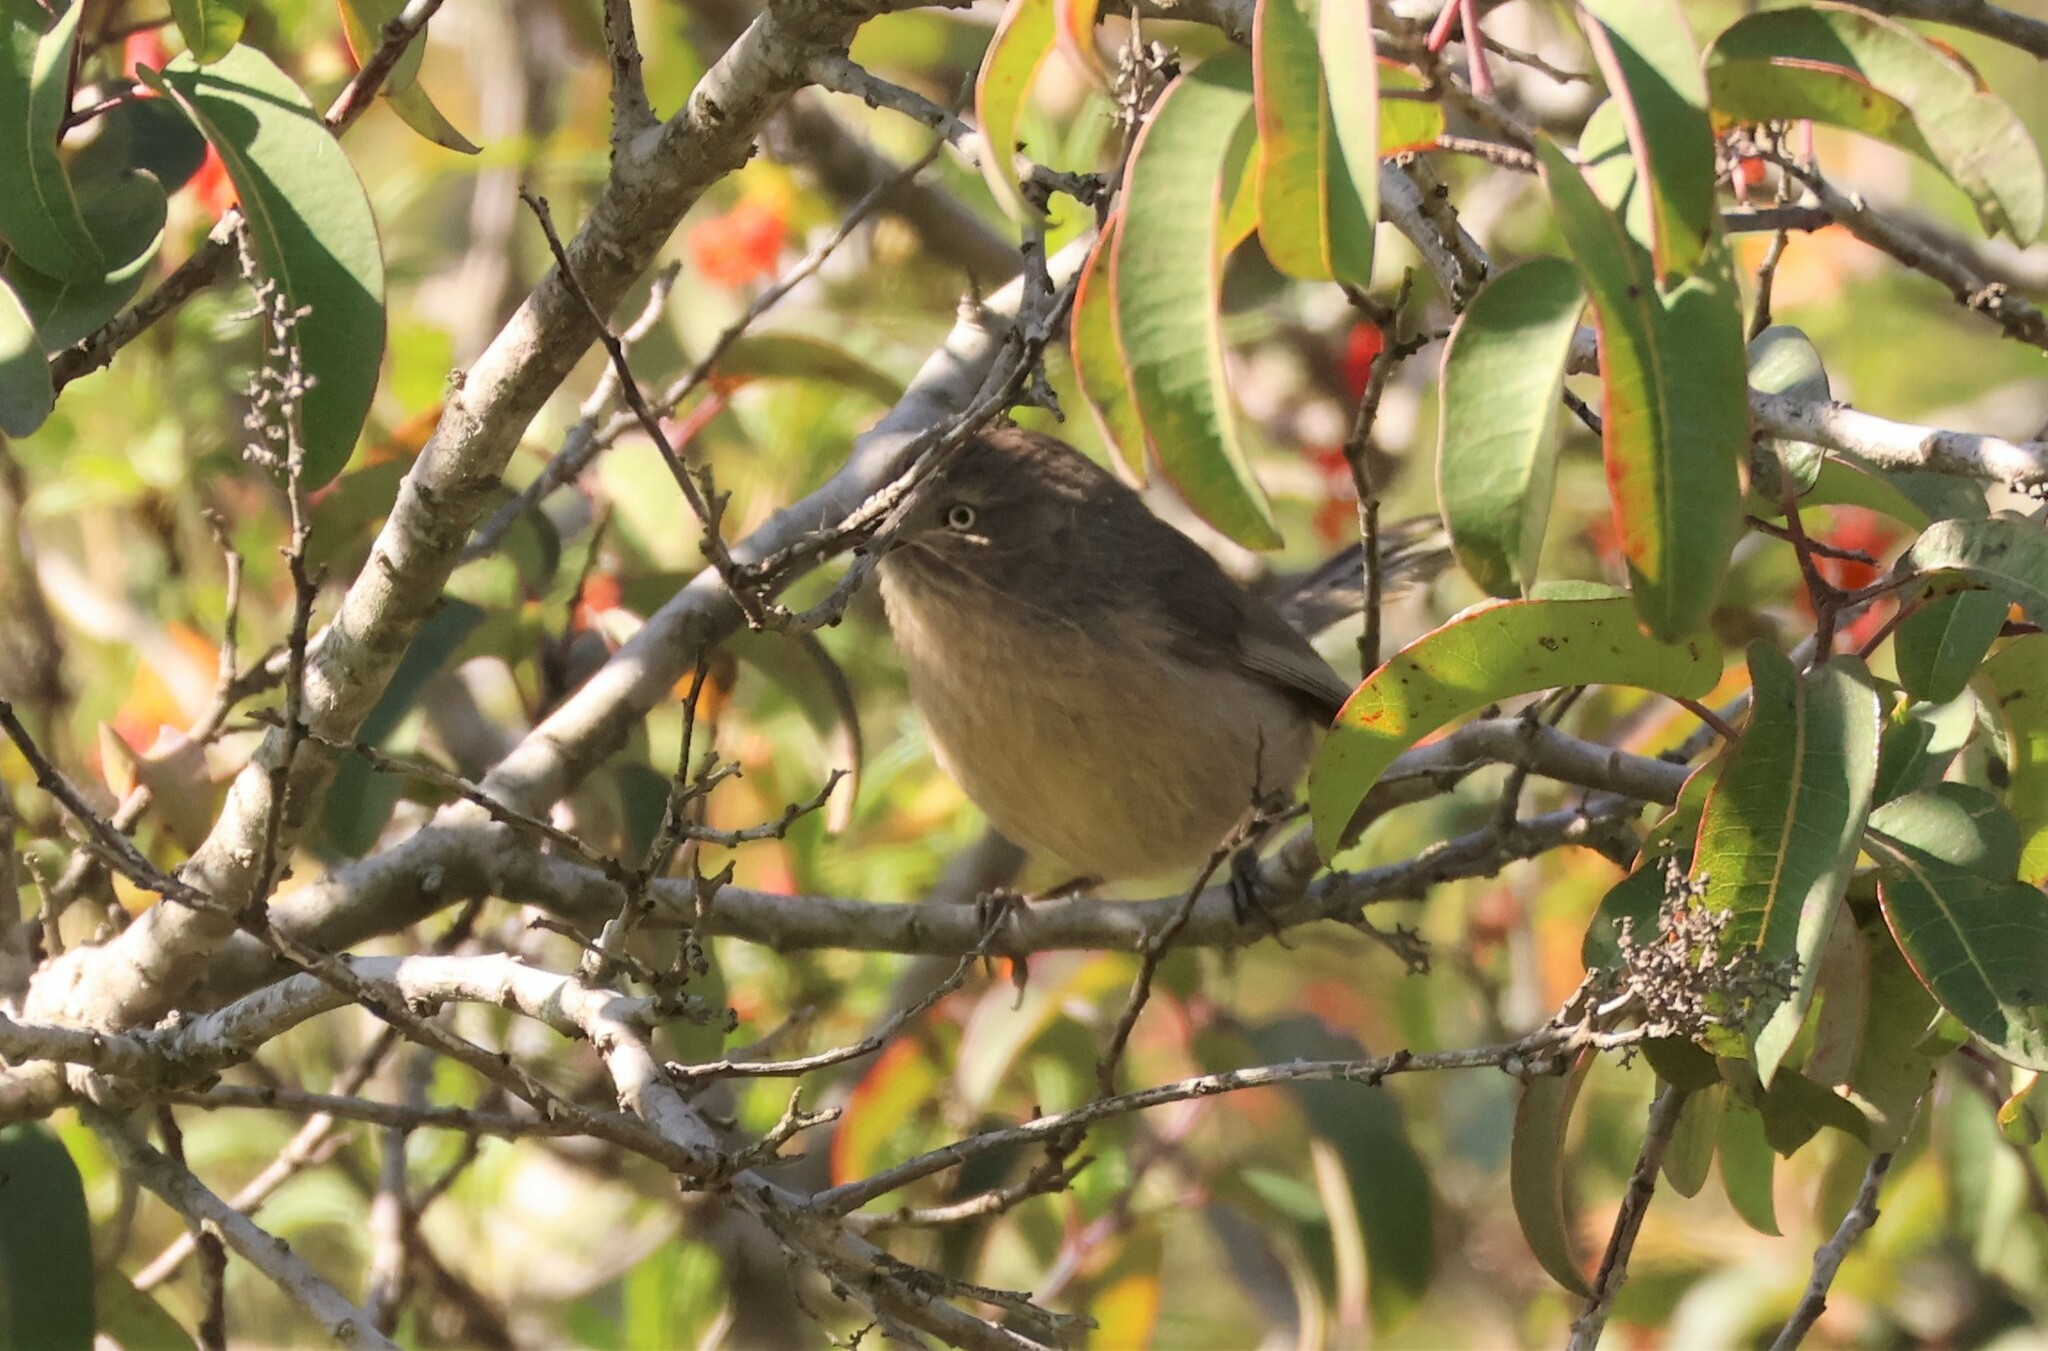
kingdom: Animalia
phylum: Chordata
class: Aves
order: Passeriformes
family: Sylviidae
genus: Chamaea
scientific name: Chamaea fasciata
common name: Wrentit
